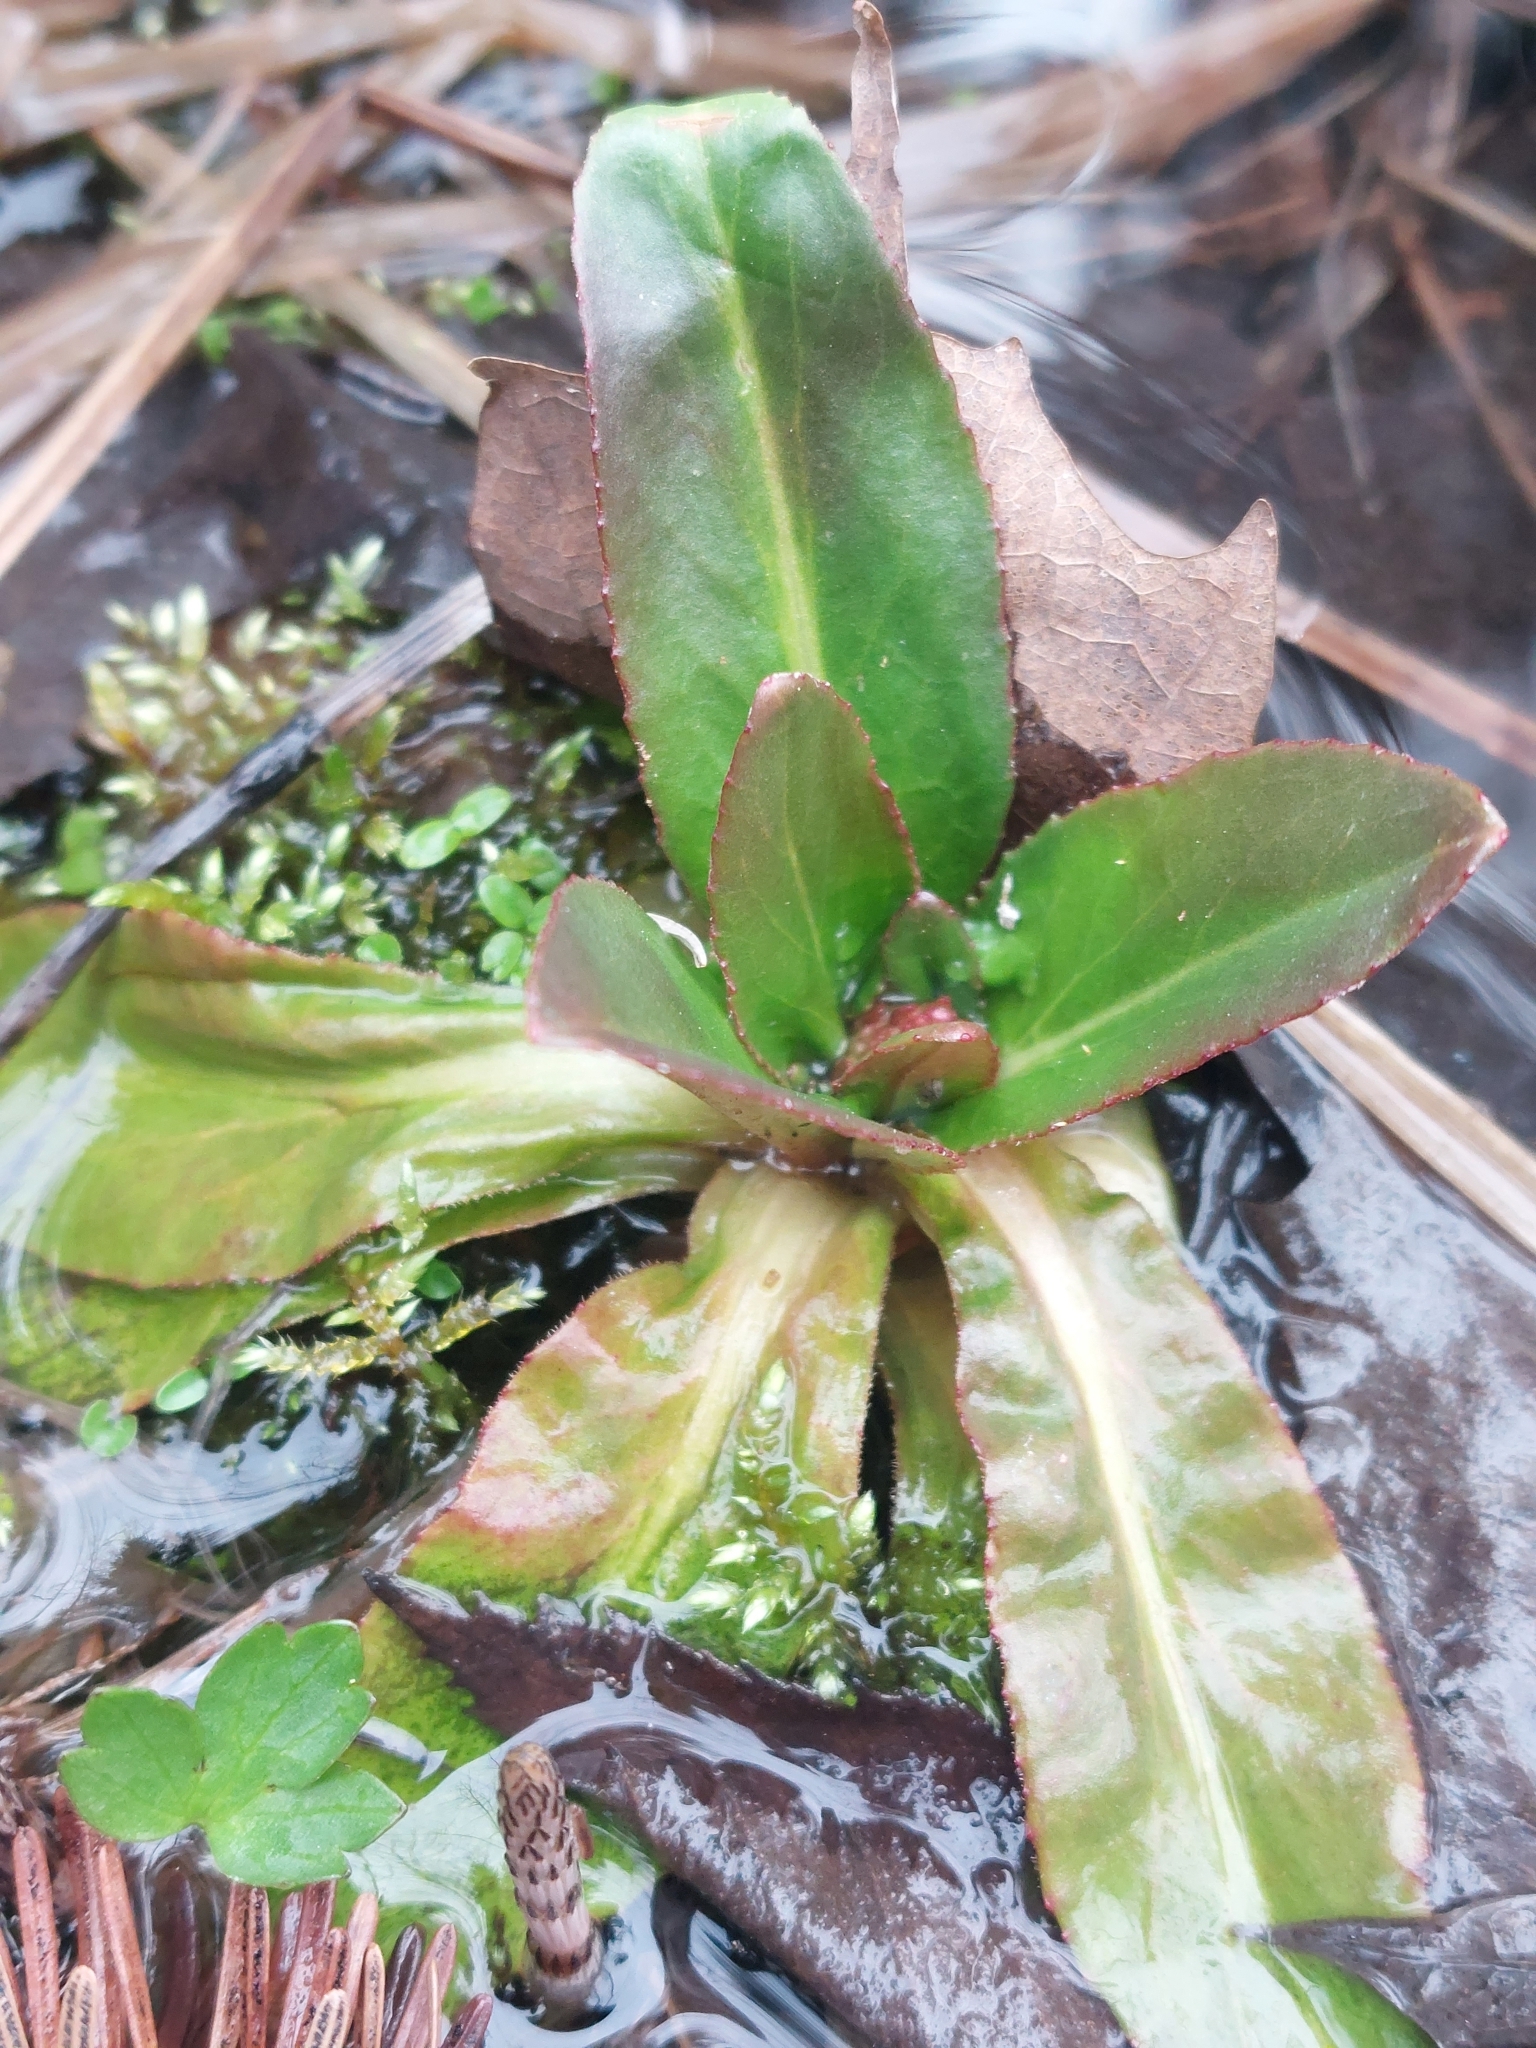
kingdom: Plantae
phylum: Tracheophyta
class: Magnoliopsida
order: Saxifragales
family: Saxifragaceae
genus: Micranthes
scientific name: Micranthes pensylvanica
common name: Marsh saxifrage
